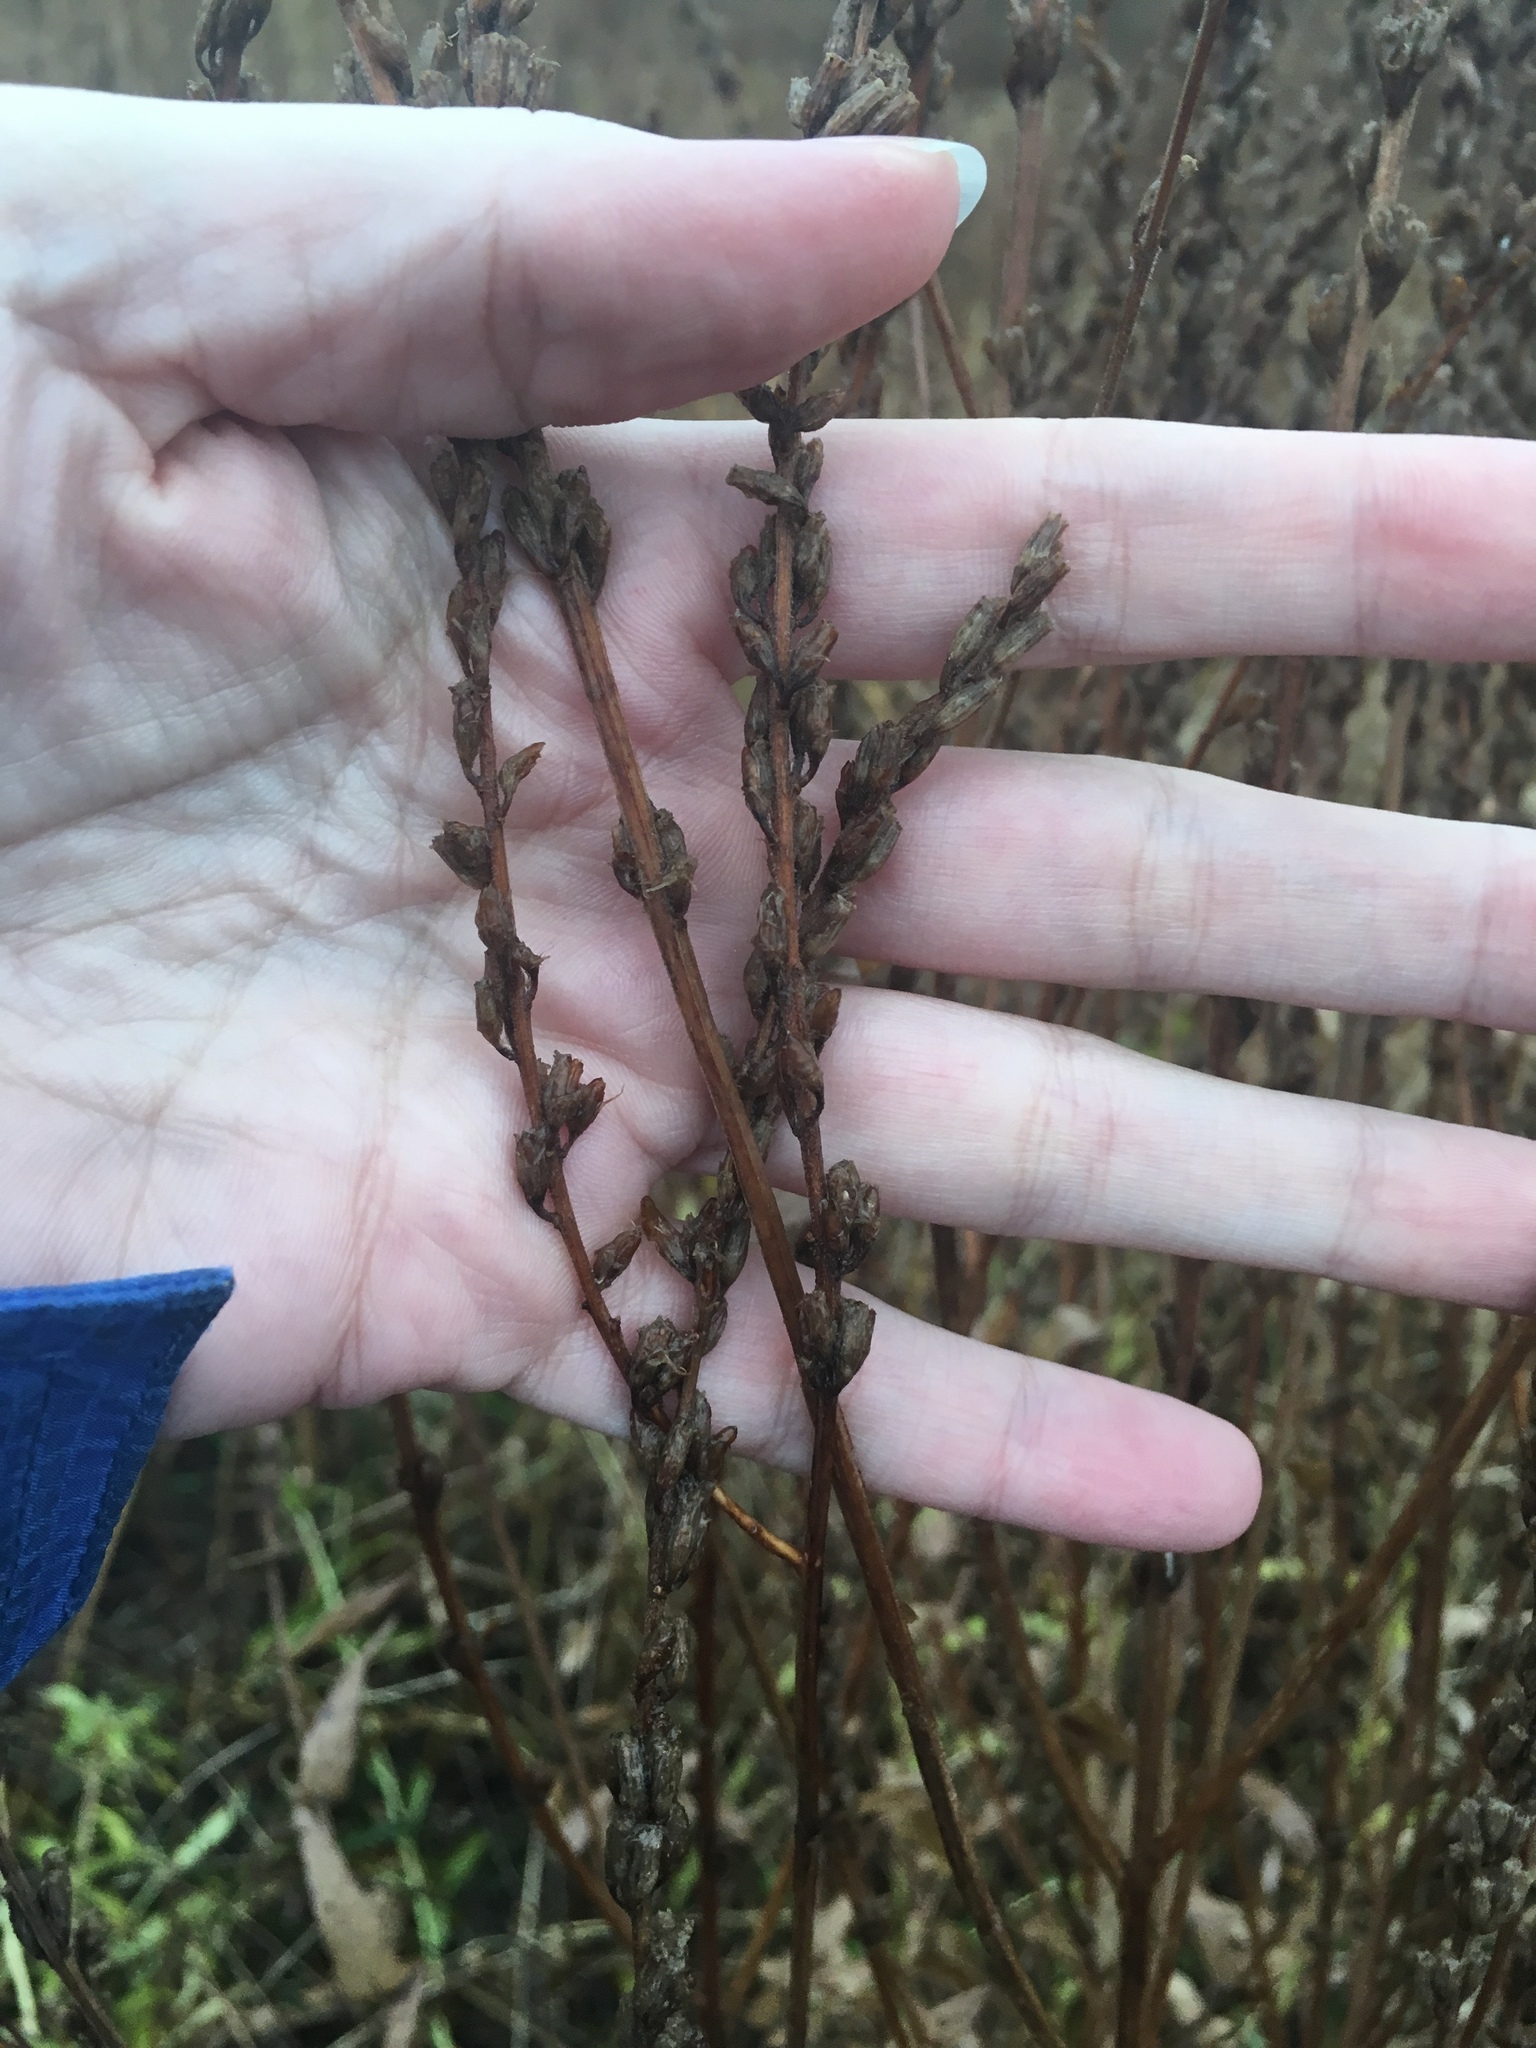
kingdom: Plantae
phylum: Tracheophyta
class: Magnoliopsida
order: Myrtales
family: Lythraceae
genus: Lythrum
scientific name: Lythrum salicaria
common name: Purple loosestrife
